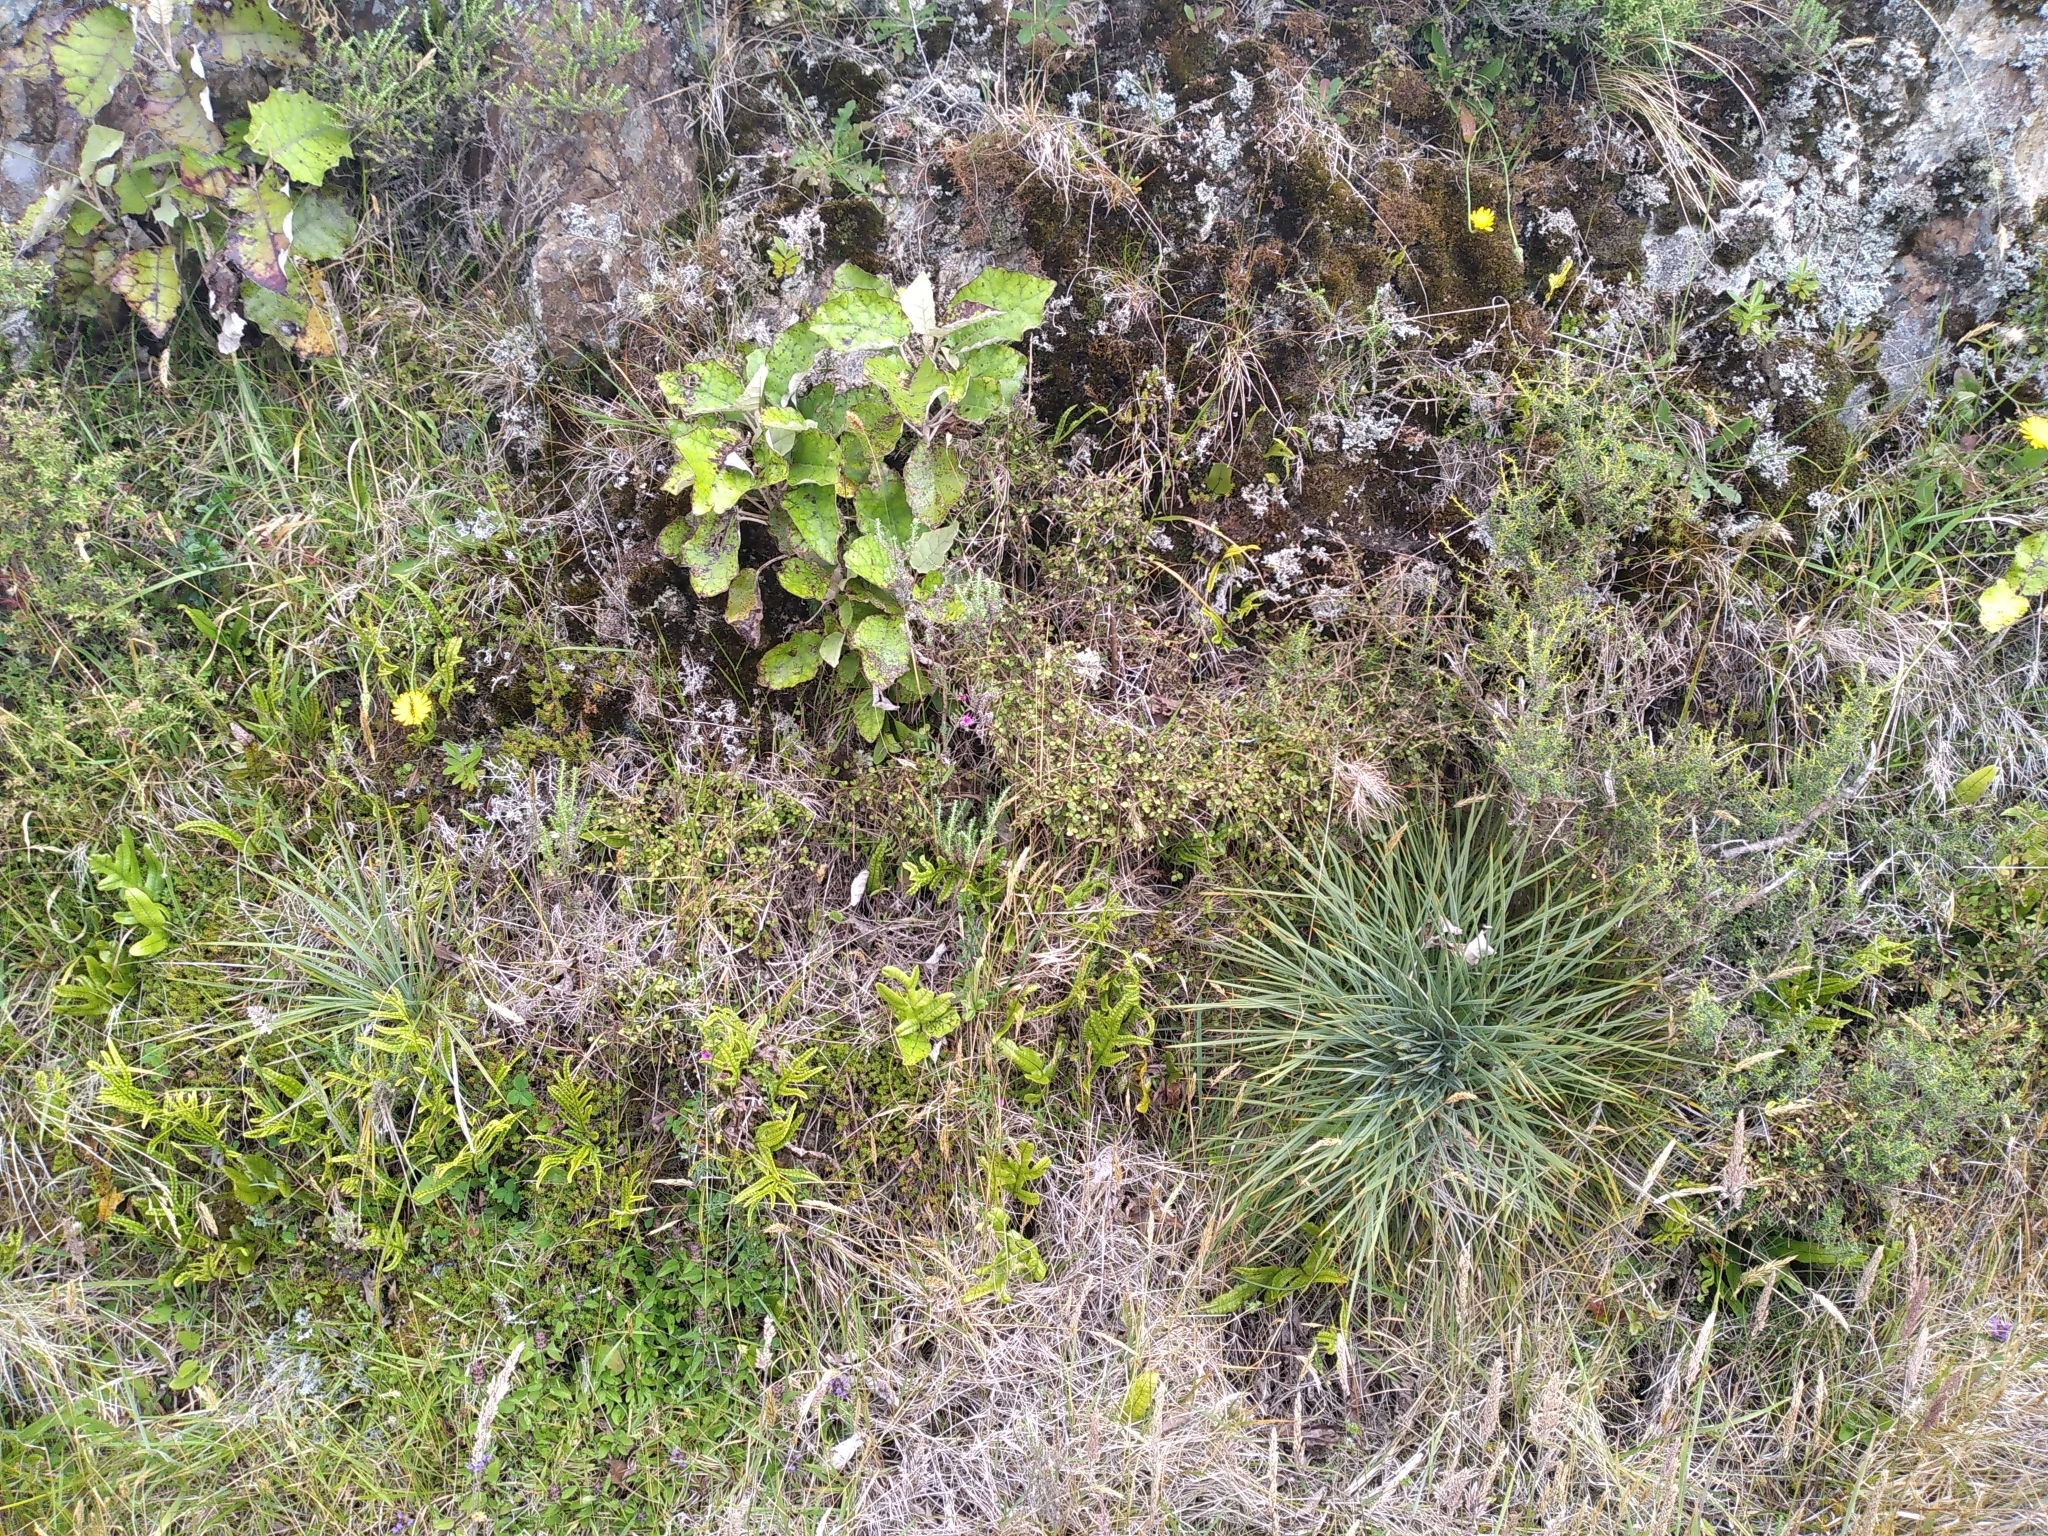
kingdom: Plantae
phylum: Tracheophyta
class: Magnoliopsida
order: Apiales
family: Apiaceae
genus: Aciphylla
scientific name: Aciphylla squarrosa
